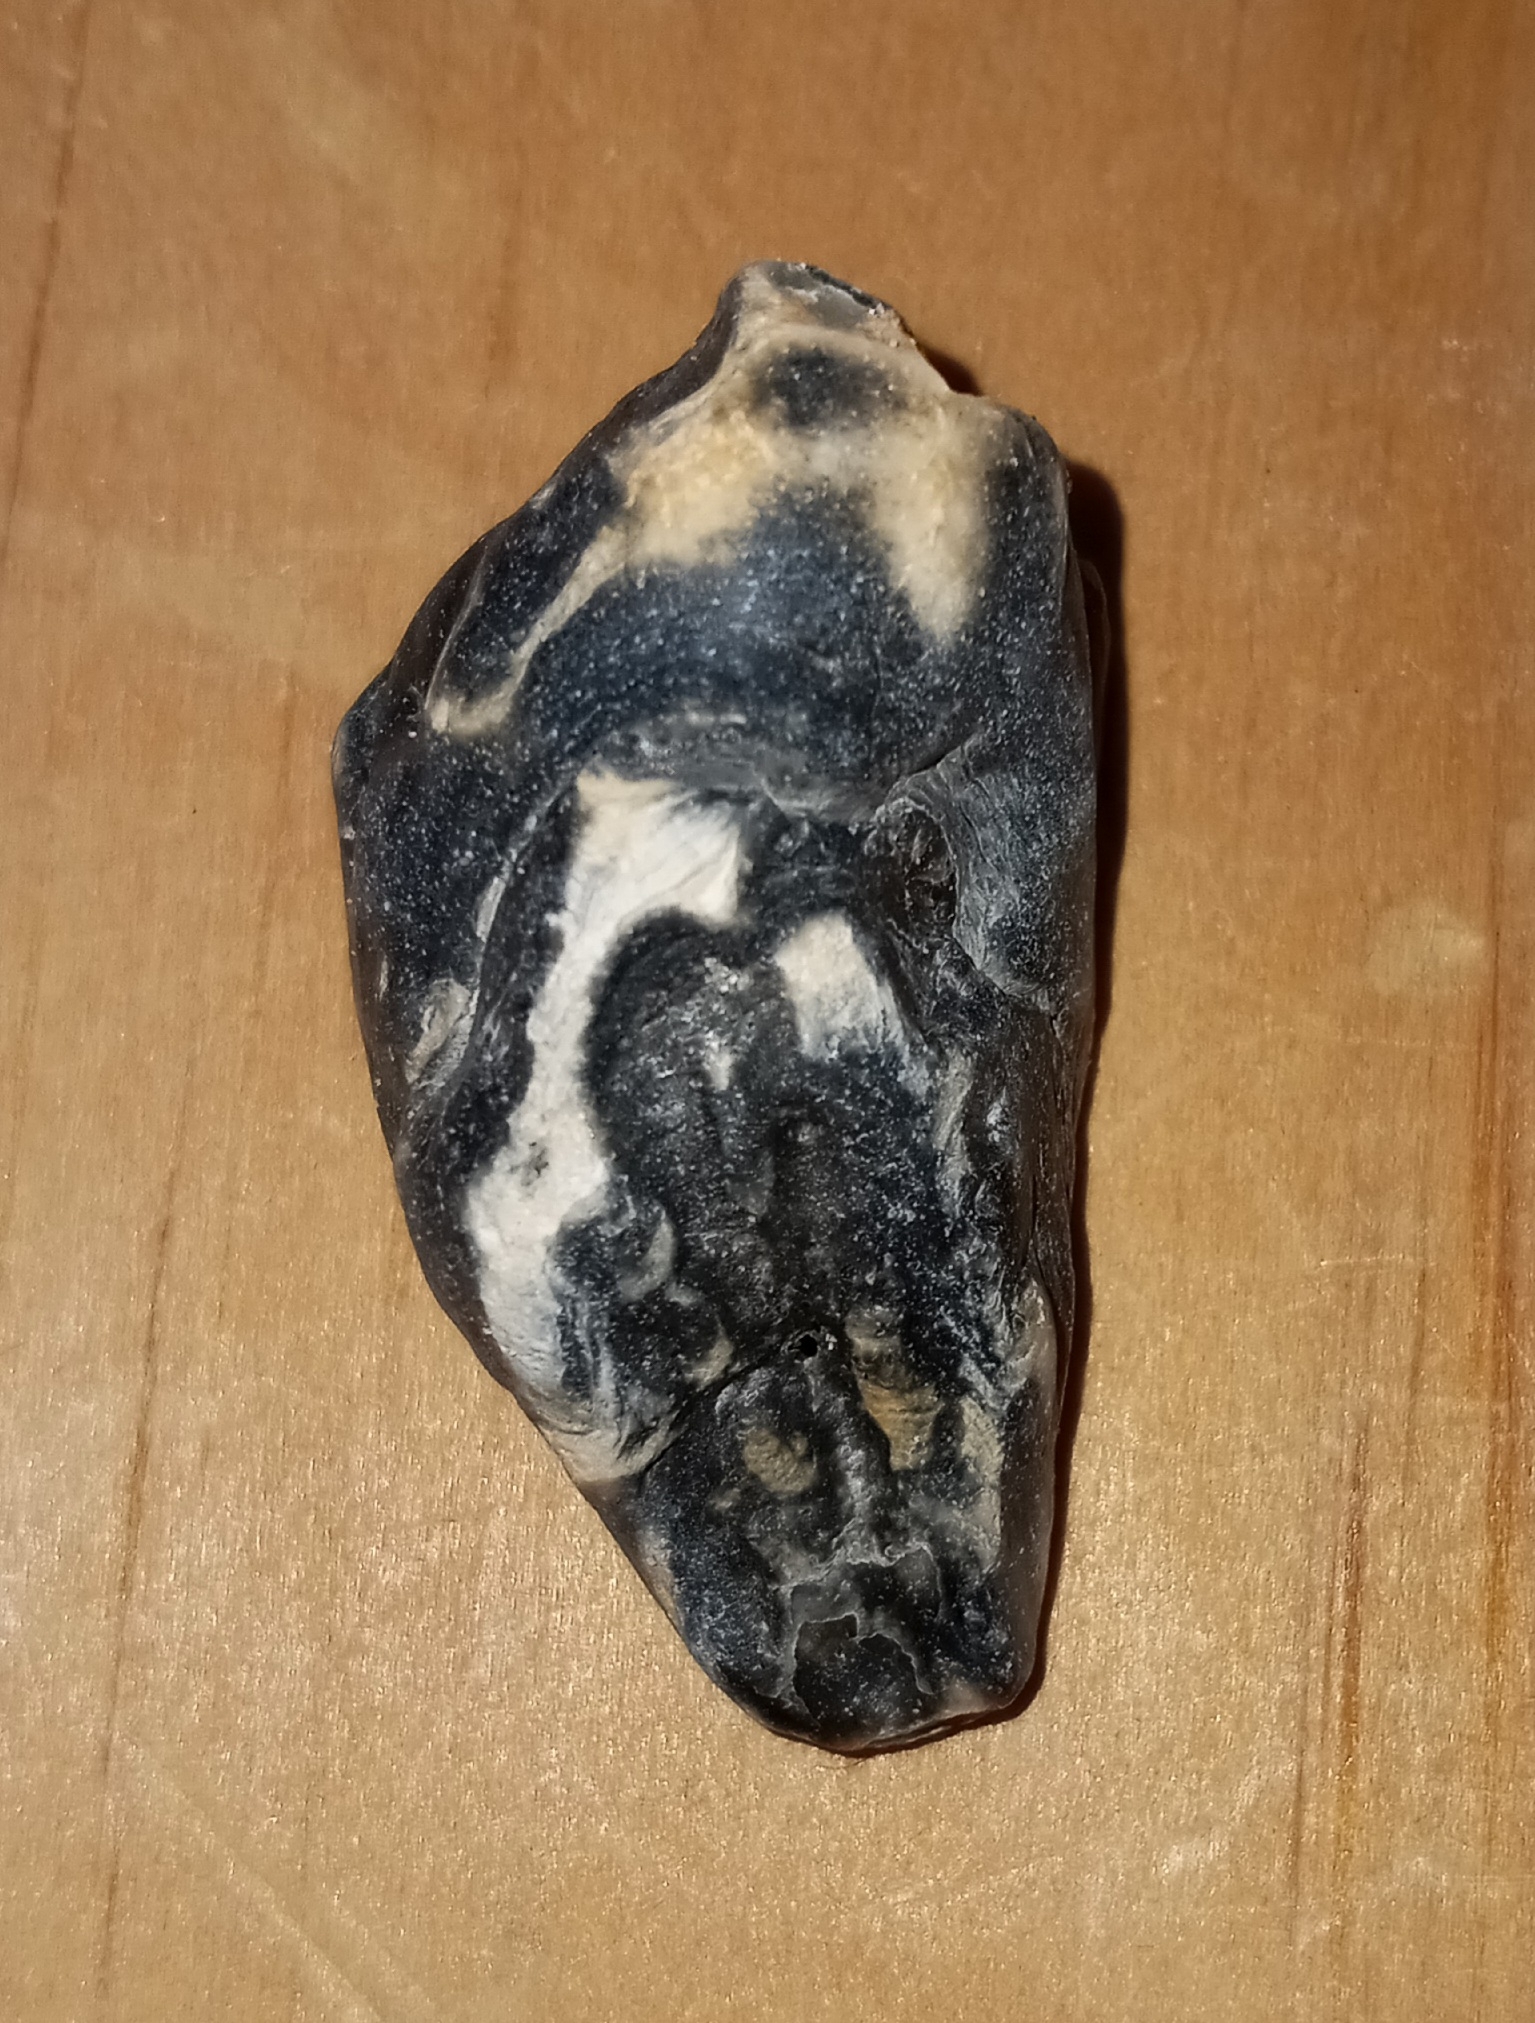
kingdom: Animalia
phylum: Mollusca
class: Bivalvia
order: Ostreida
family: Ostreidae
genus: Crassostrea
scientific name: Crassostrea virginica
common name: American oyster
